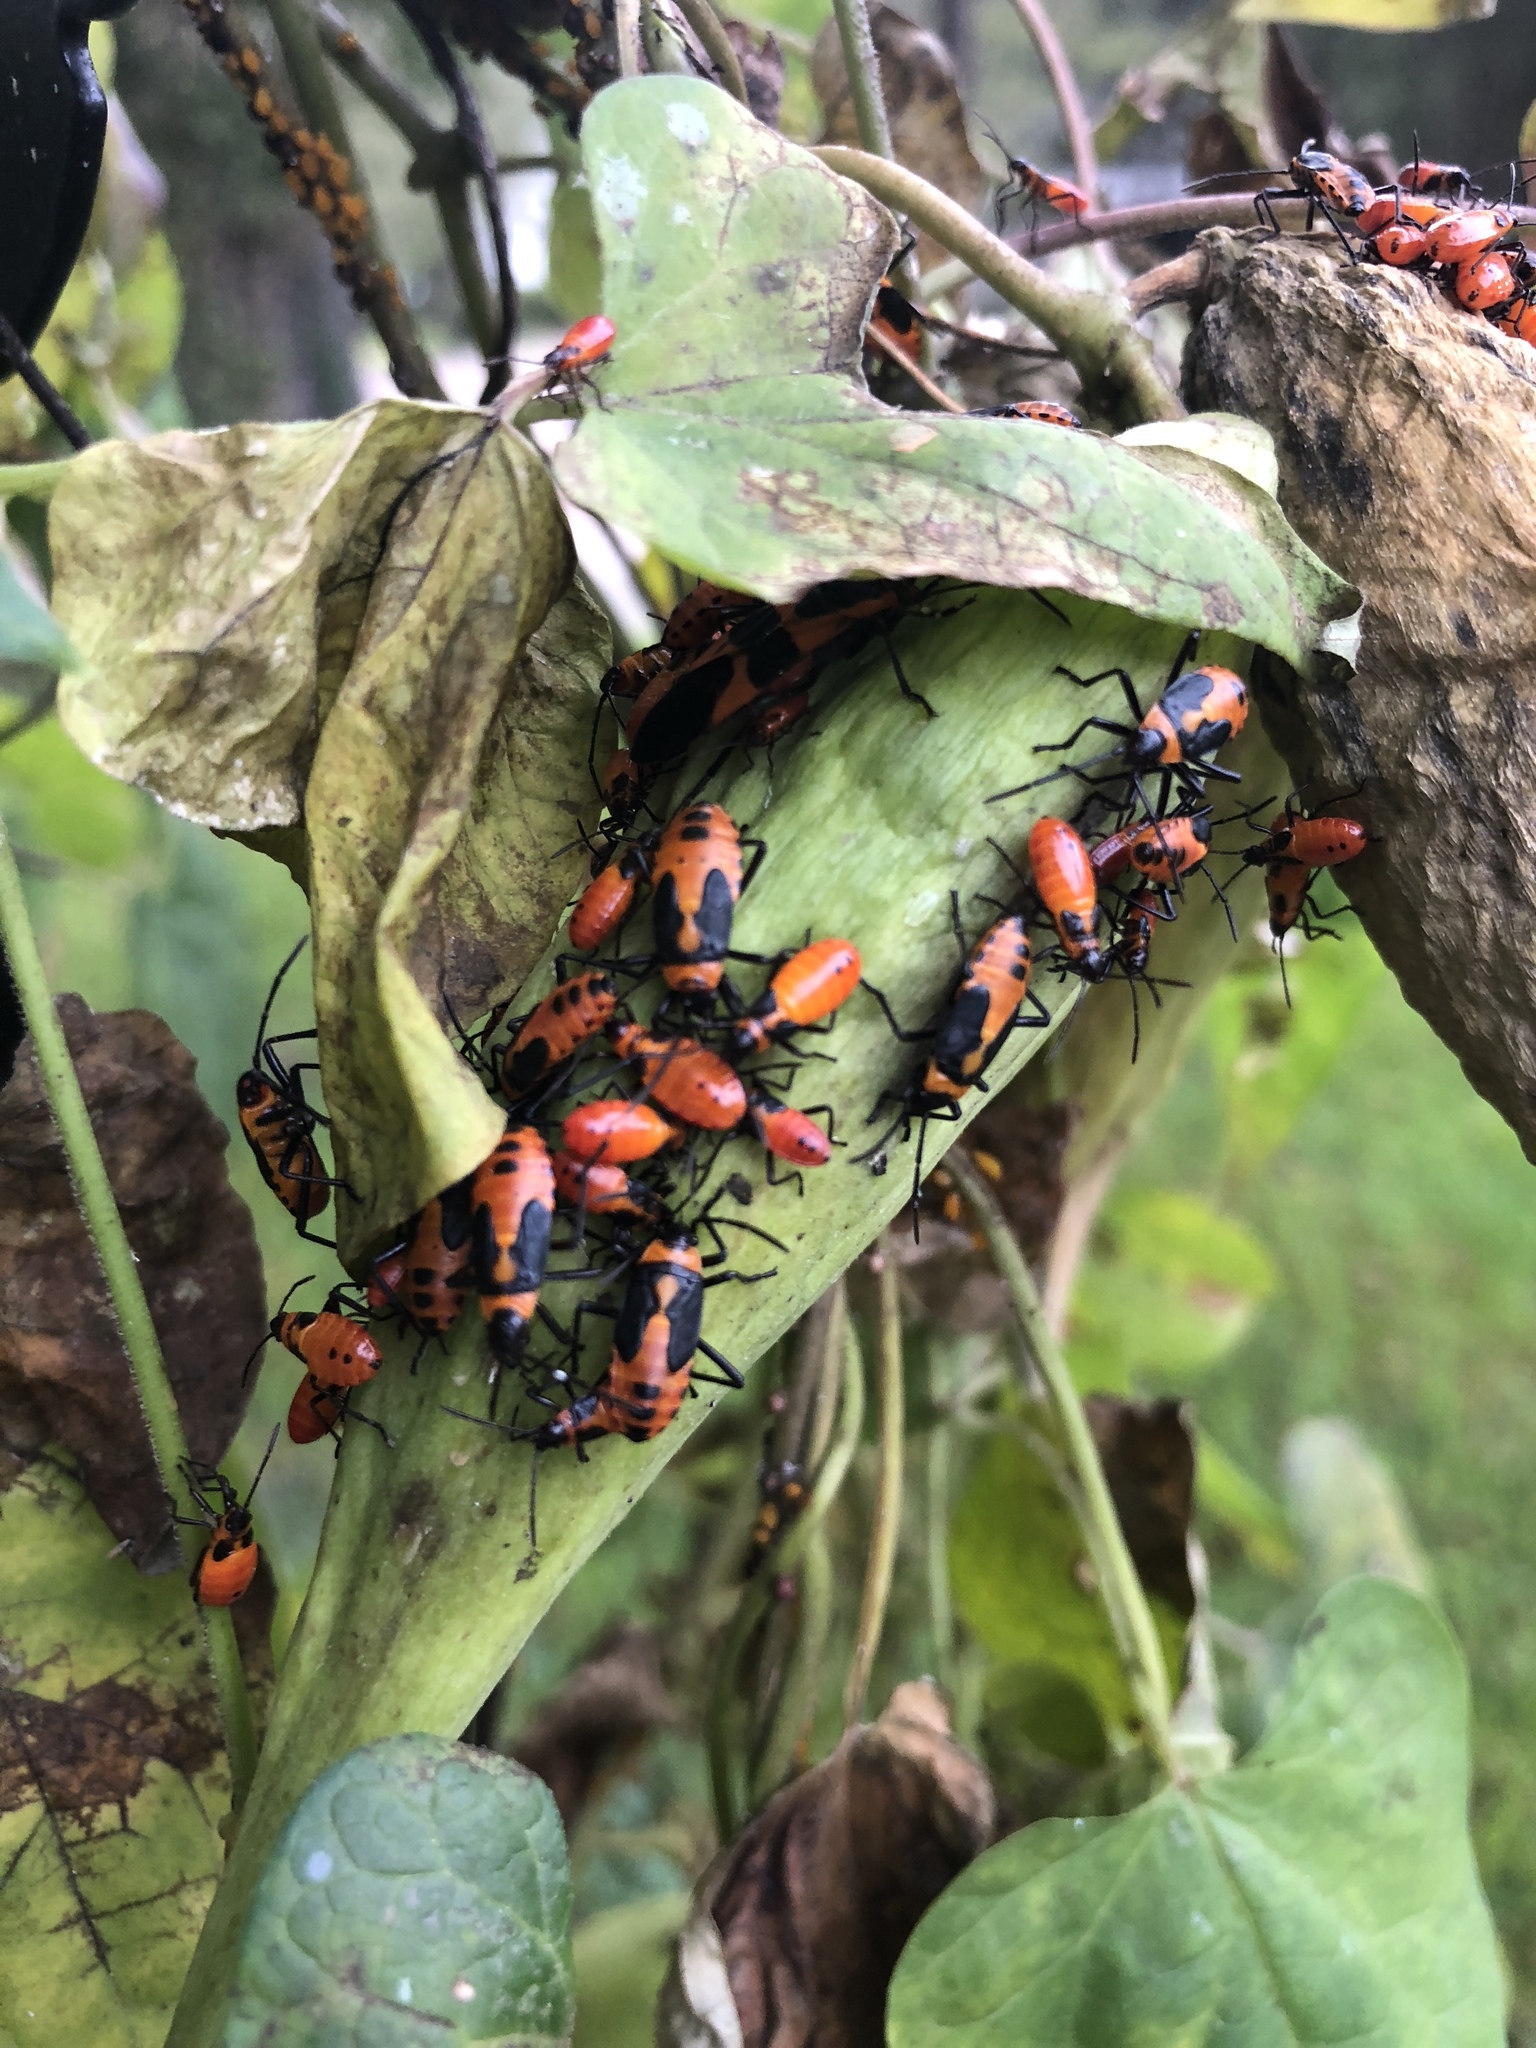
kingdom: Animalia
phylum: Arthropoda
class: Insecta
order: Hemiptera
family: Lygaeidae
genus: Oncopeltus
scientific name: Oncopeltus fasciatus
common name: Large milkweed bug
